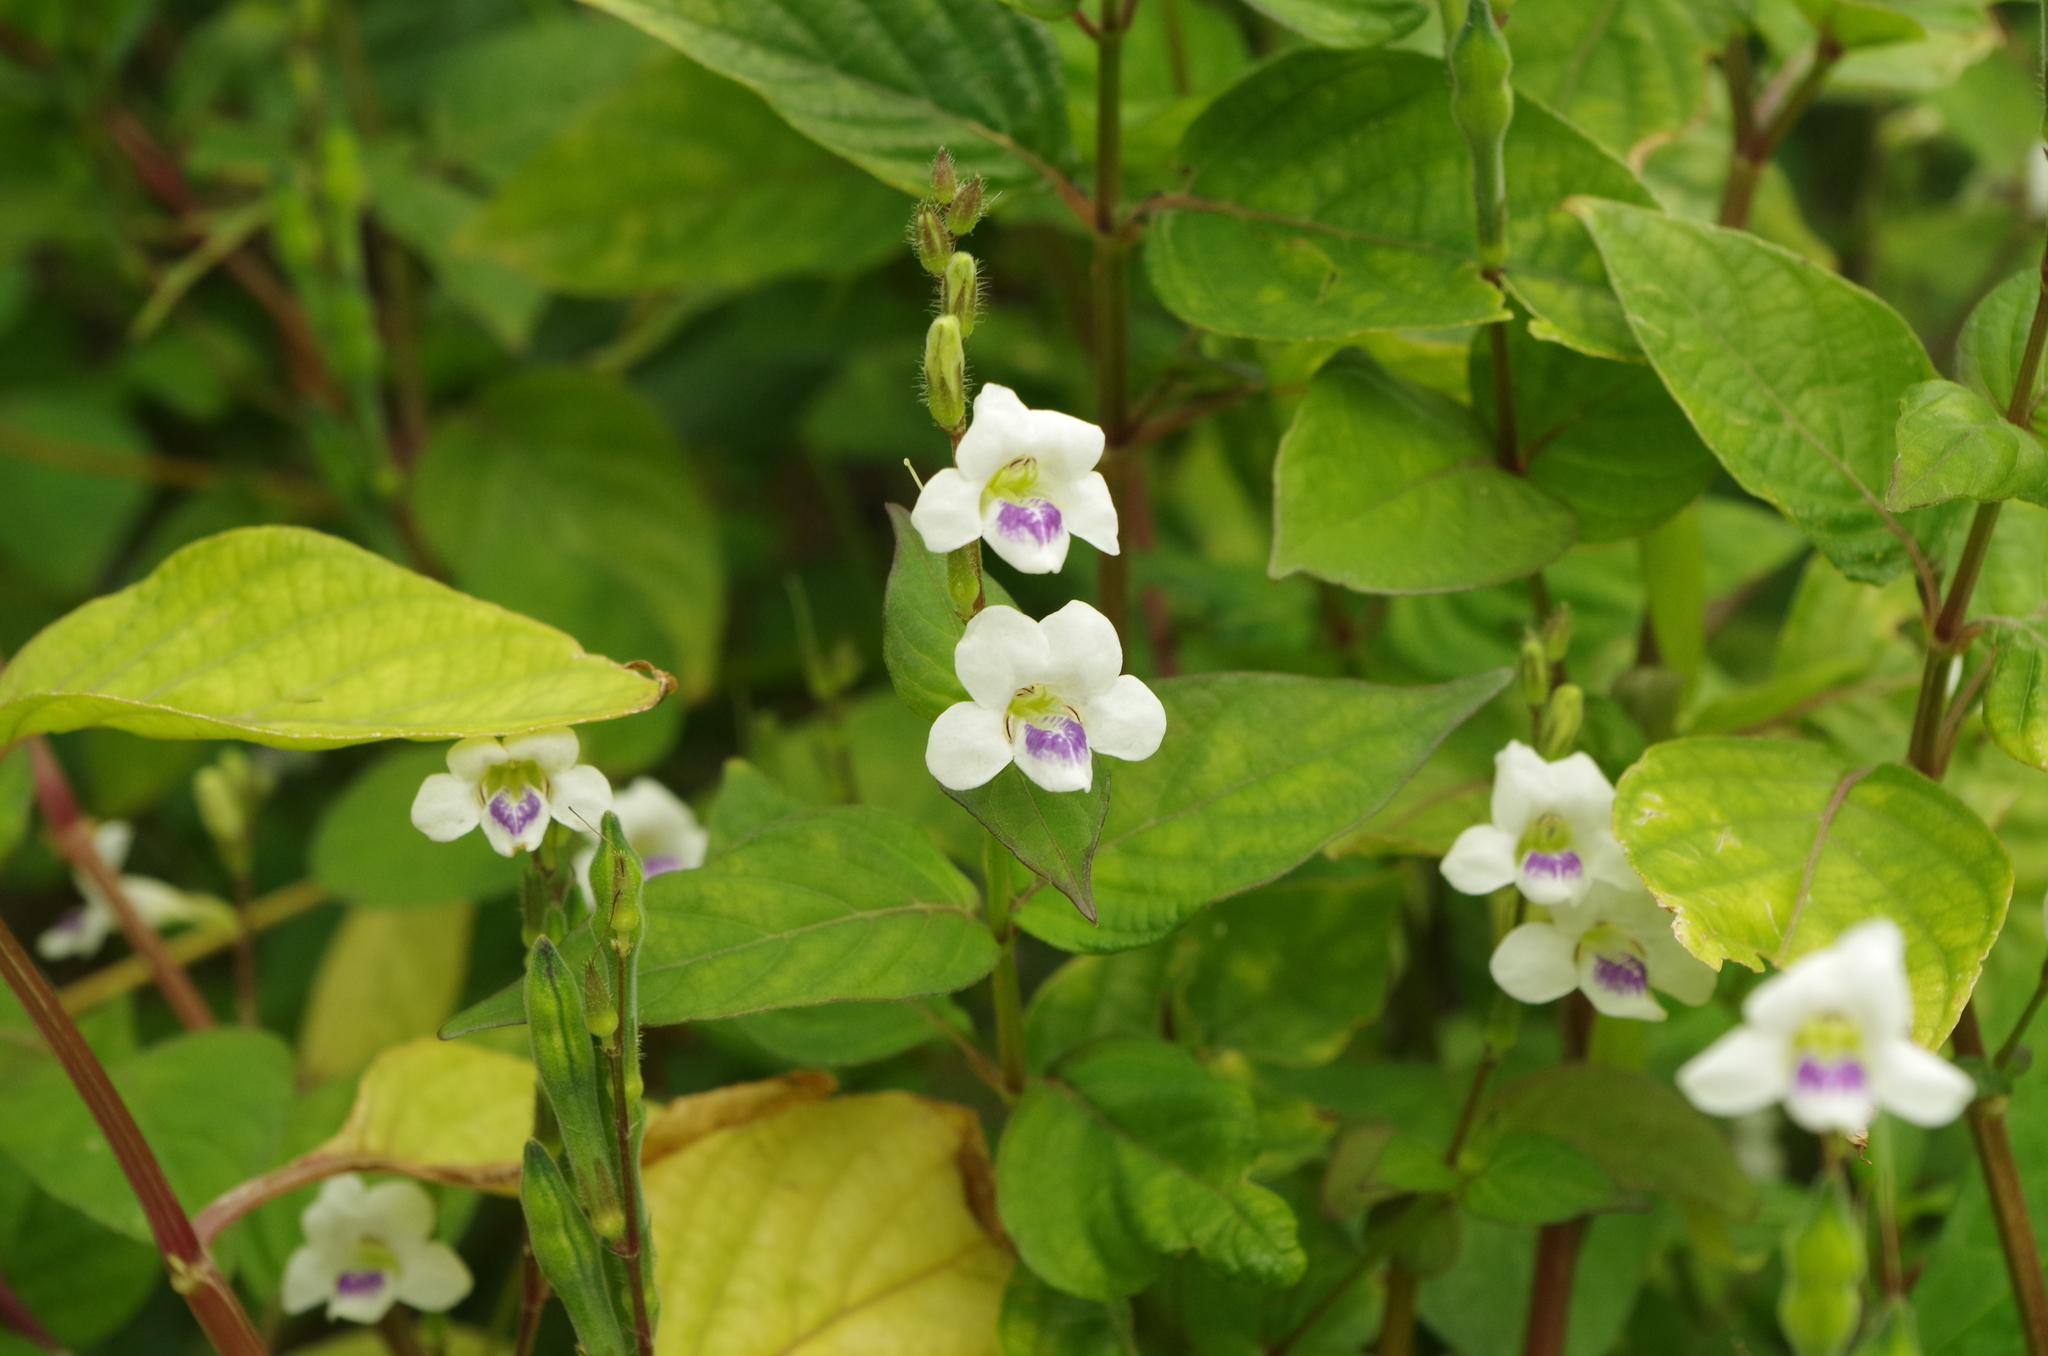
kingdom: Plantae
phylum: Tracheophyta
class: Magnoliopsida
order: Lamiales
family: Acanthaceae
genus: Asystasia
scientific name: Asystasia intrusa
